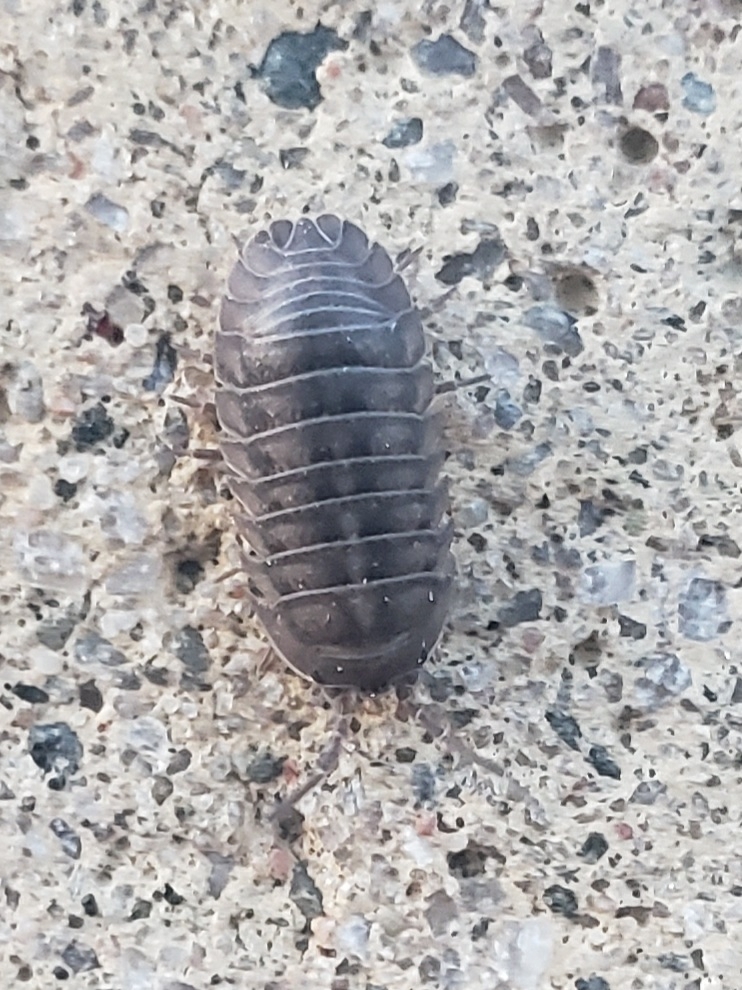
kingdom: Animalia
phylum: Arthropoda
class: Malacostraca
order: Isopoda
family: Armadillidiidae
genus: Armadillidium
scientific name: Armadillidium nasatum
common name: Isopod
